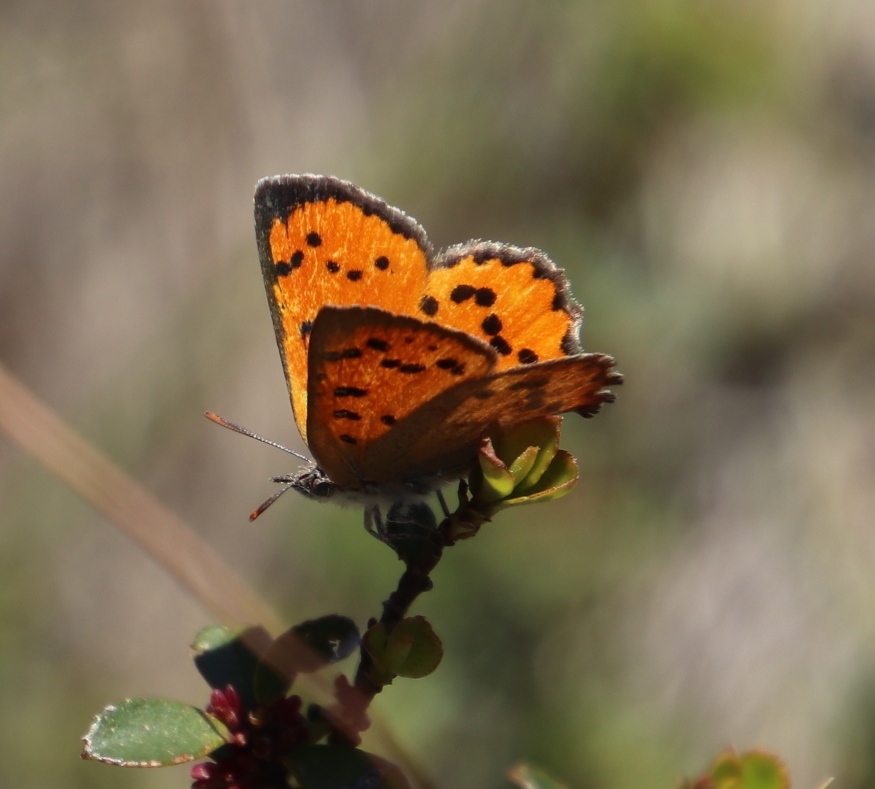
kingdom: Animalia
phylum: Arthropoda
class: Insecta
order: Lepidoptera
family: Lycaenidae
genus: Zeritis
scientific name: Zeritis chrysaor
